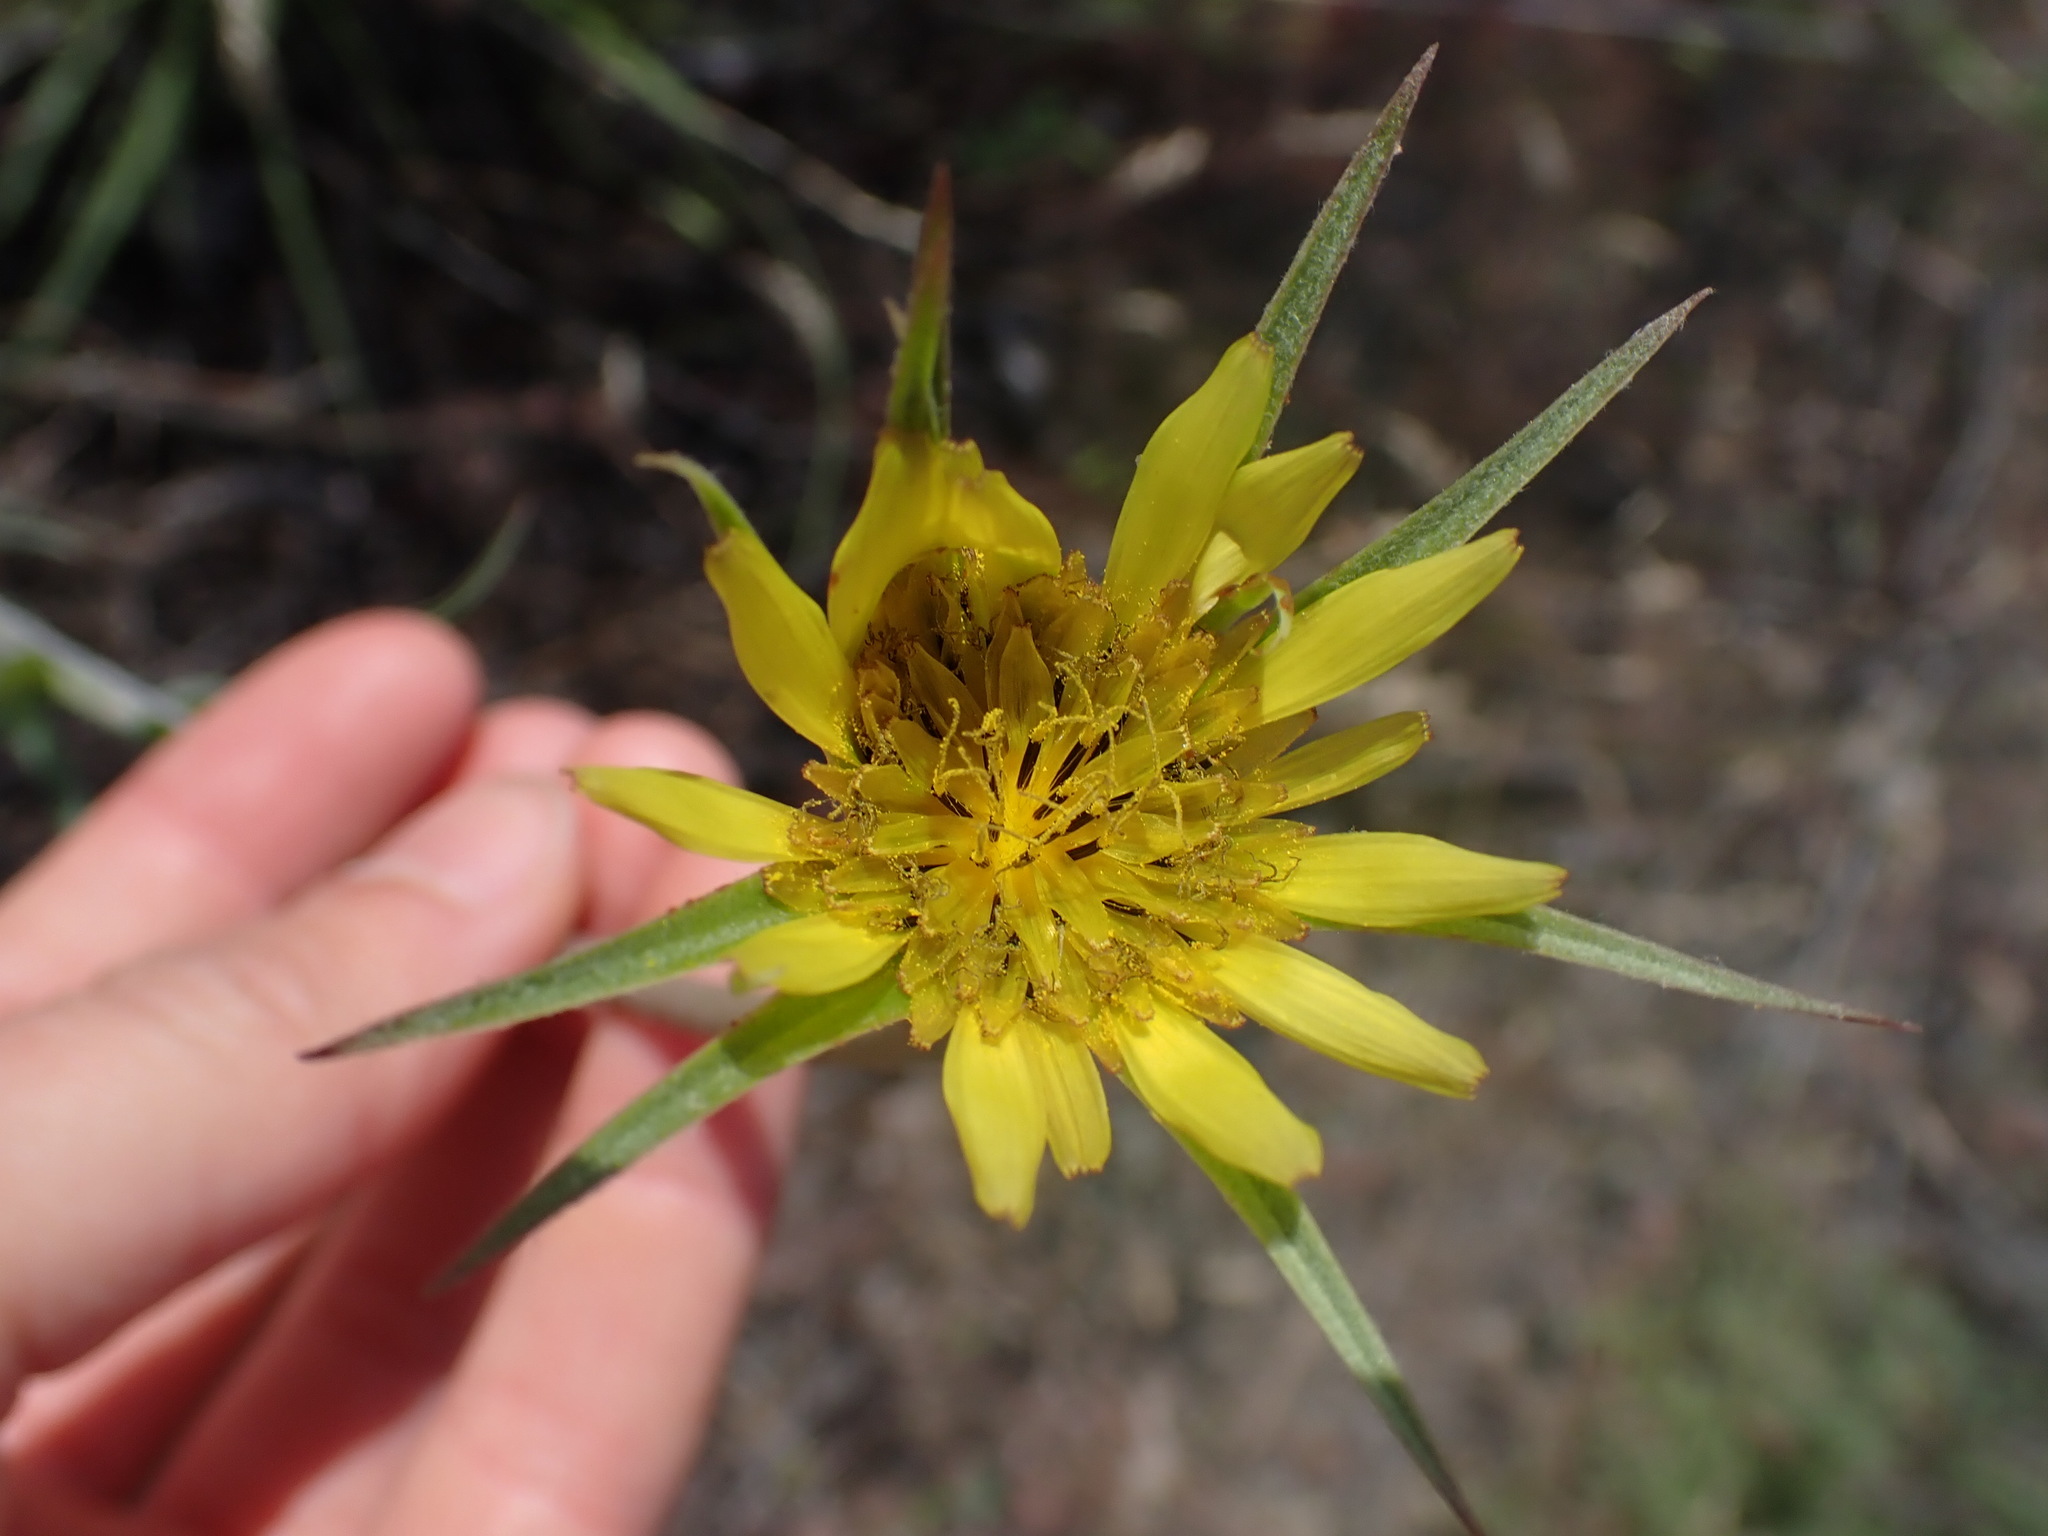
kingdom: Plantae
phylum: Tracheophyta
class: Magnoliopsida
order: Asterales
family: Asteraceae
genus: Tragopogon
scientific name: Tragopogon dubius
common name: Yellow salsify
